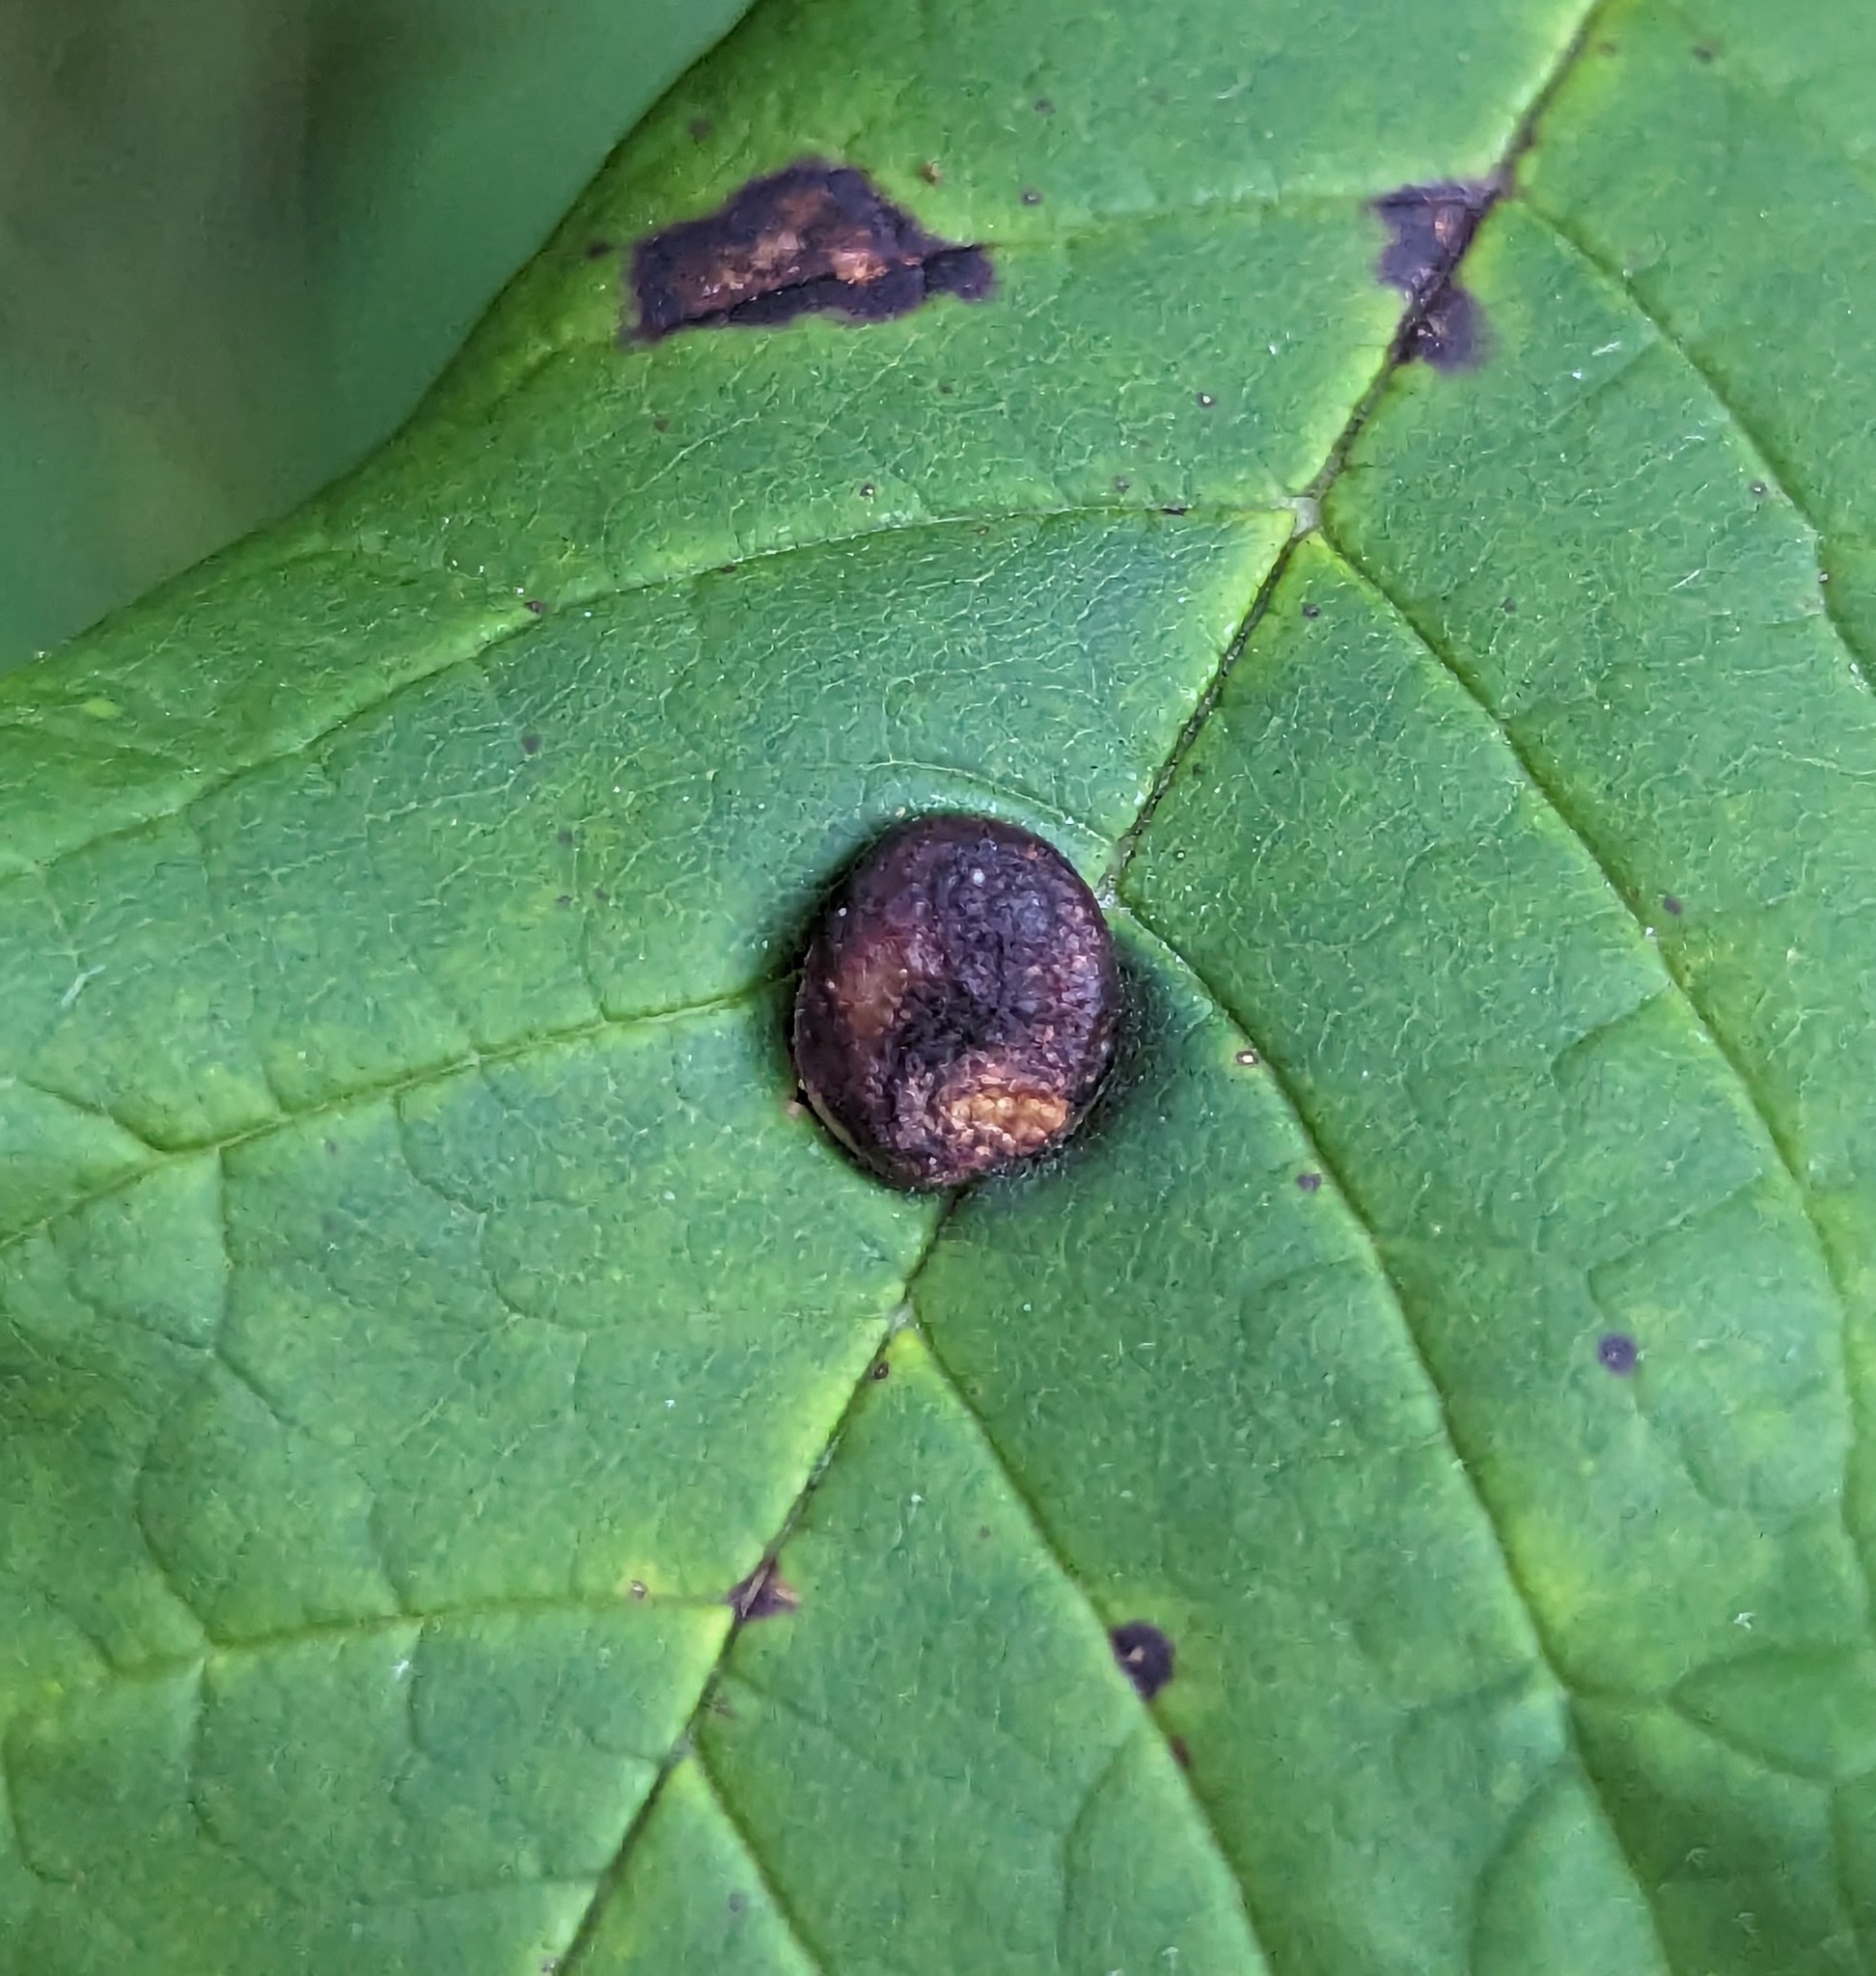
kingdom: Animalia
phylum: Arthropoda
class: Insecta
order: Diptera
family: Cecidomyiidae
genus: Dasineura
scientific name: Dasineura pellex
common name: Ash bullet gall midge
